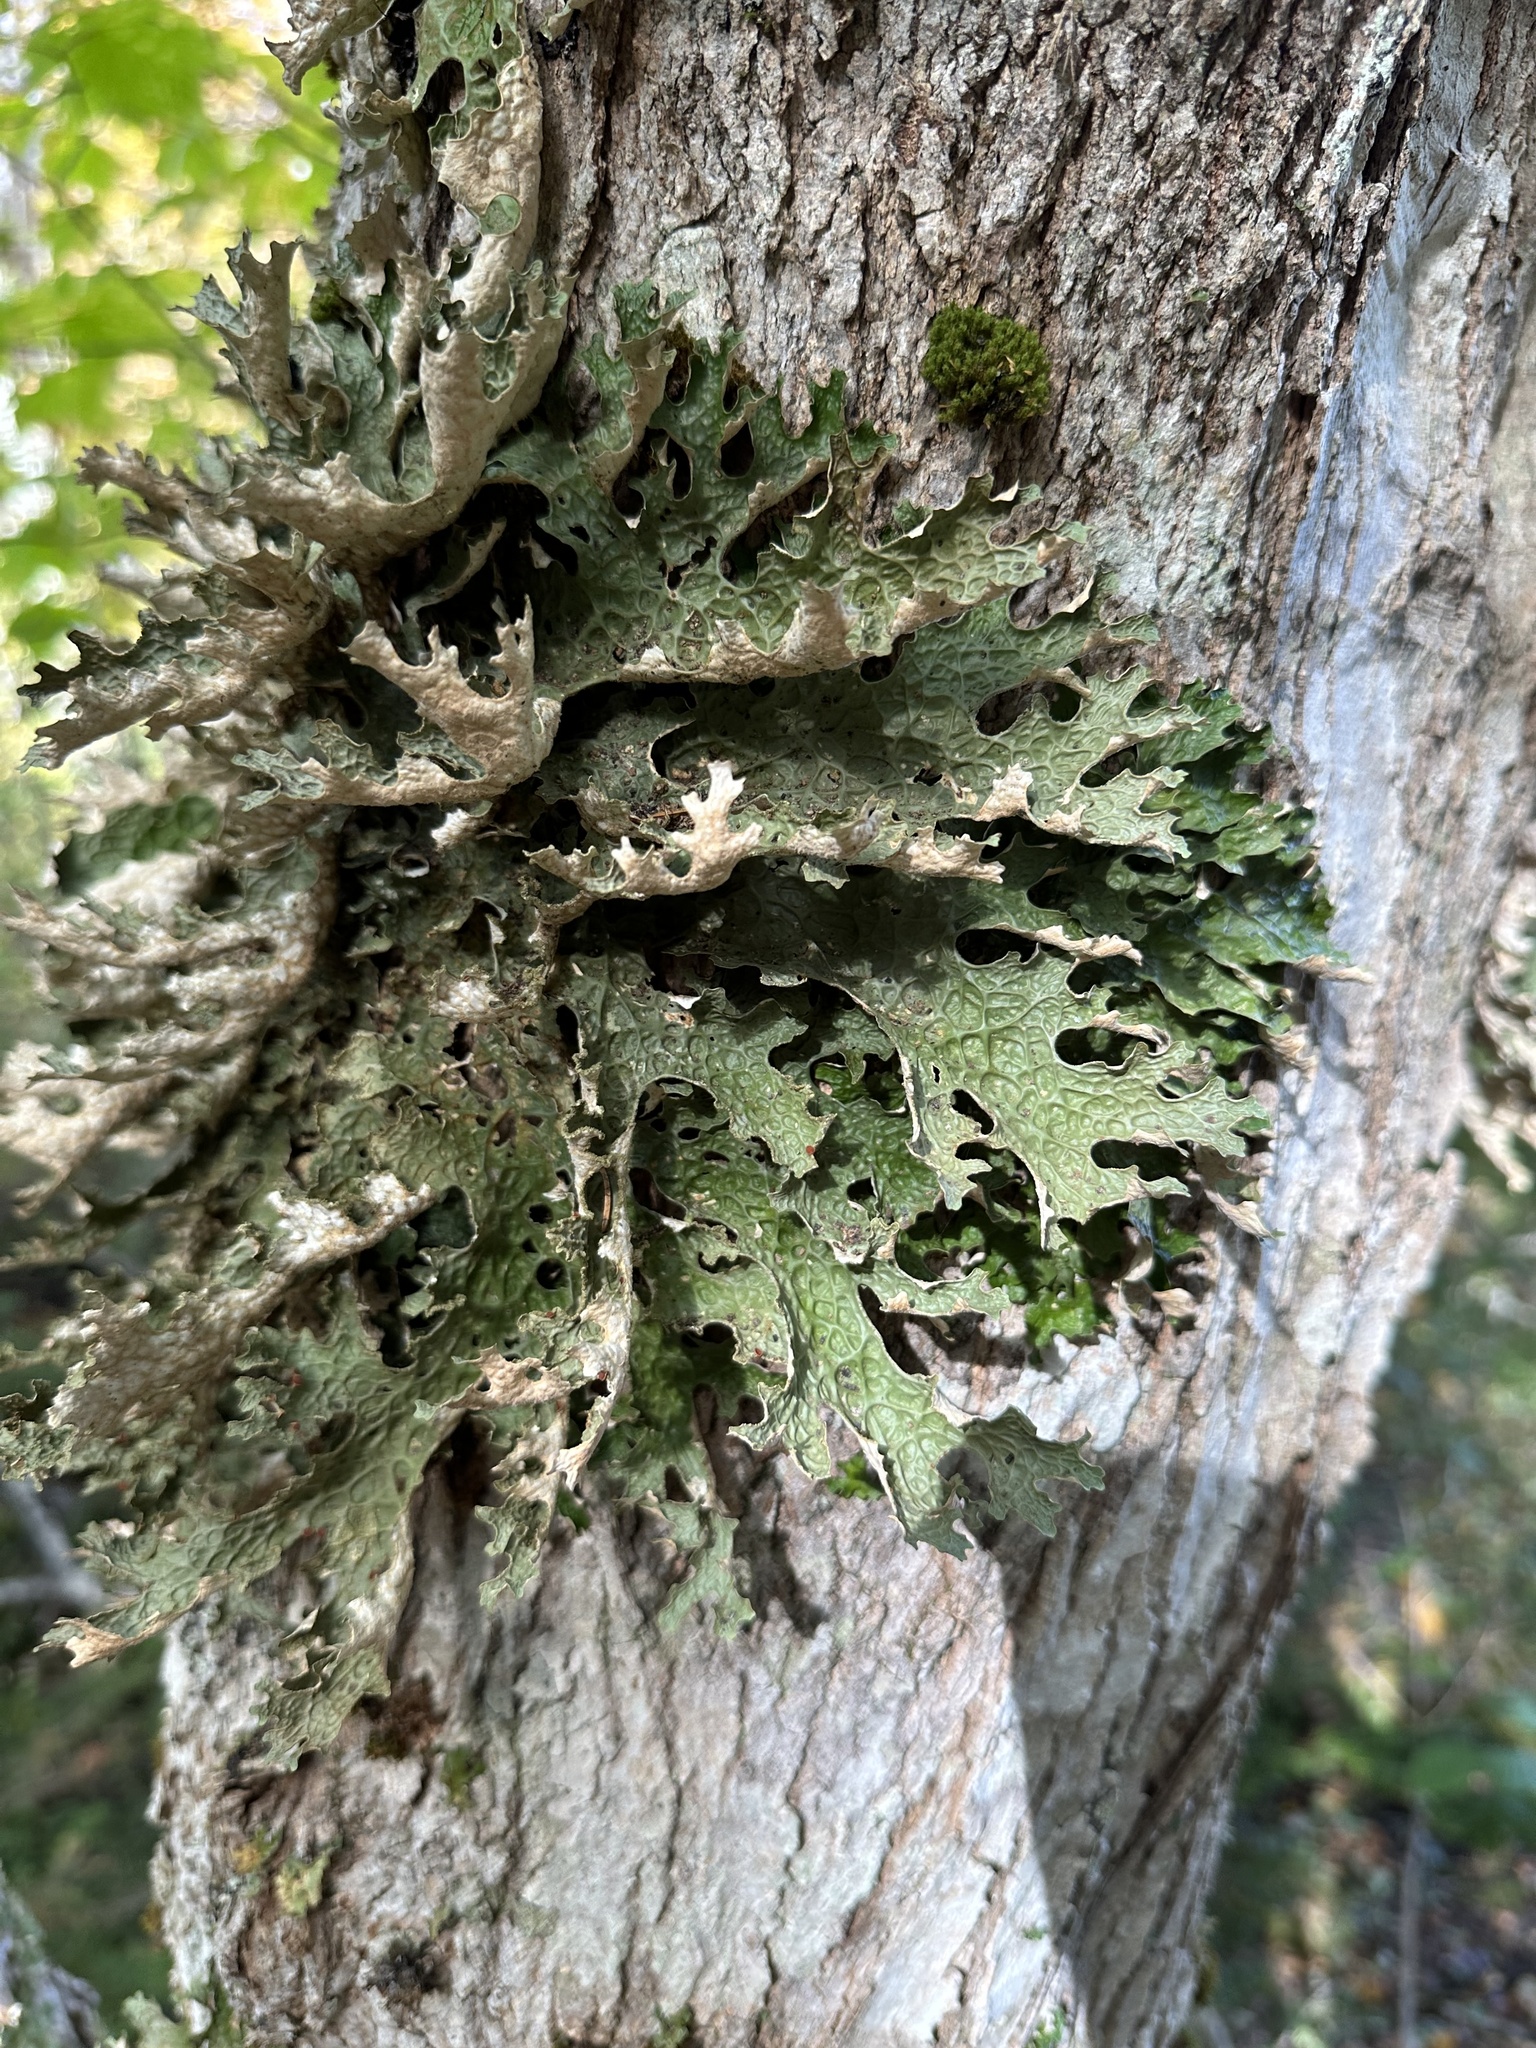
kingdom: Fungi
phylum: Ascomycota
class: Lecanoromycetes
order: Peltigerales
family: Lobariaceae
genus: Lobaria
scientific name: Lobaria pulmonaria
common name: Lungwort
